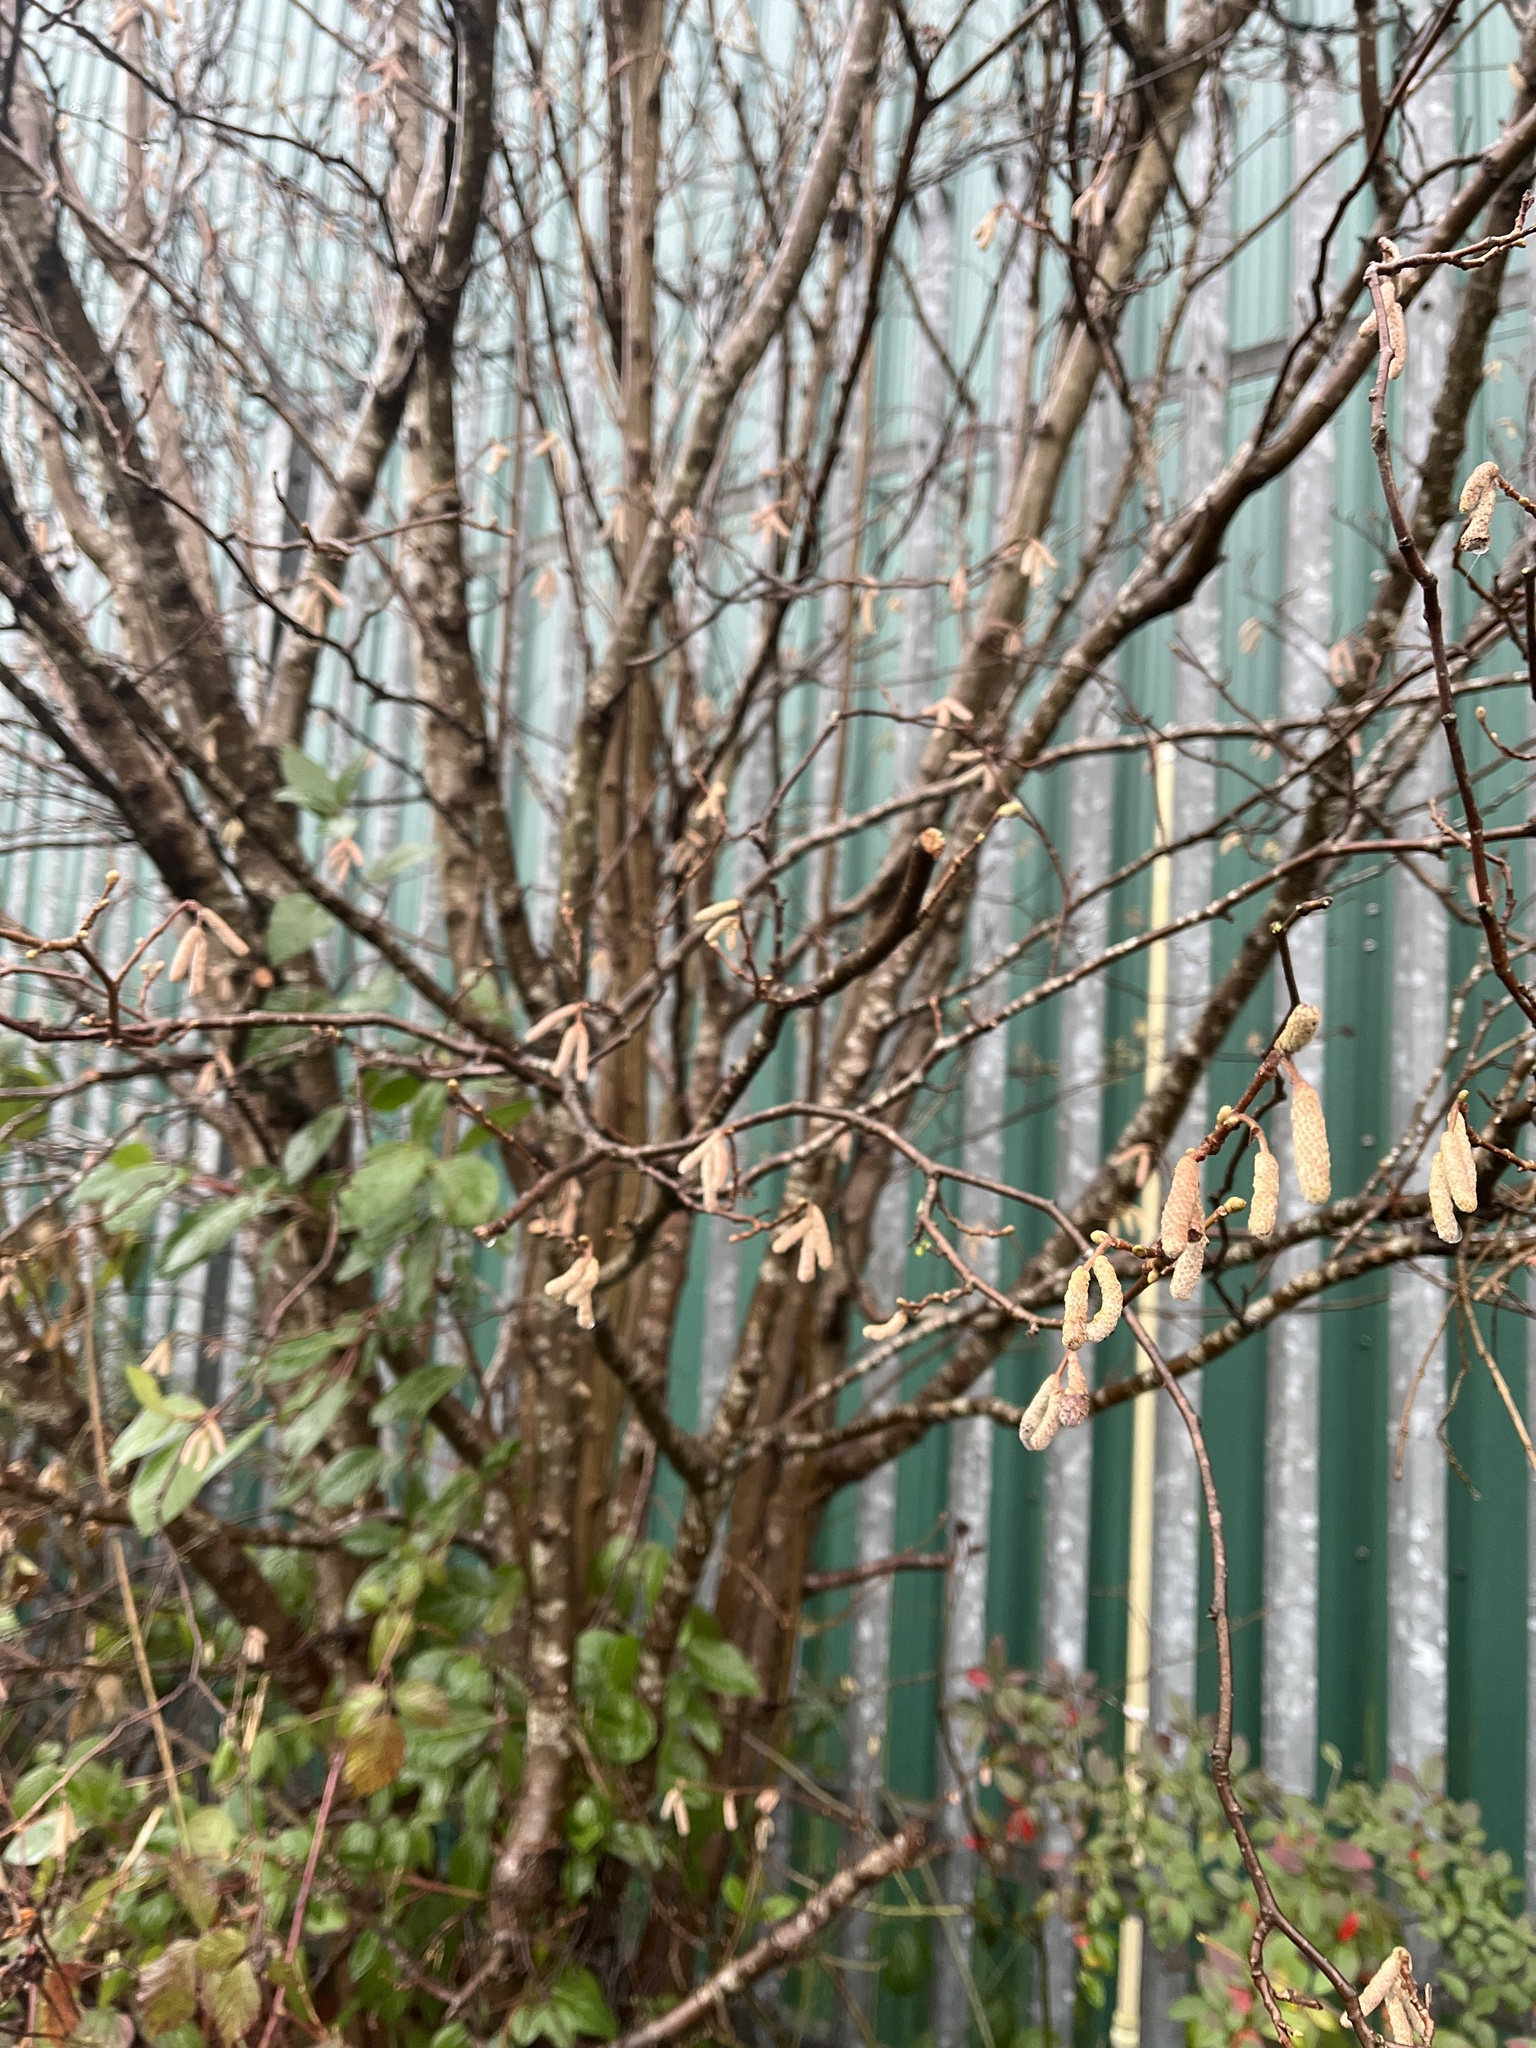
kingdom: Plantae
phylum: Tracheophyta
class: Magnoliopsida
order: Fagales
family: Betulaceae
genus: Corylus
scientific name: Corylus avellana
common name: European hazel
